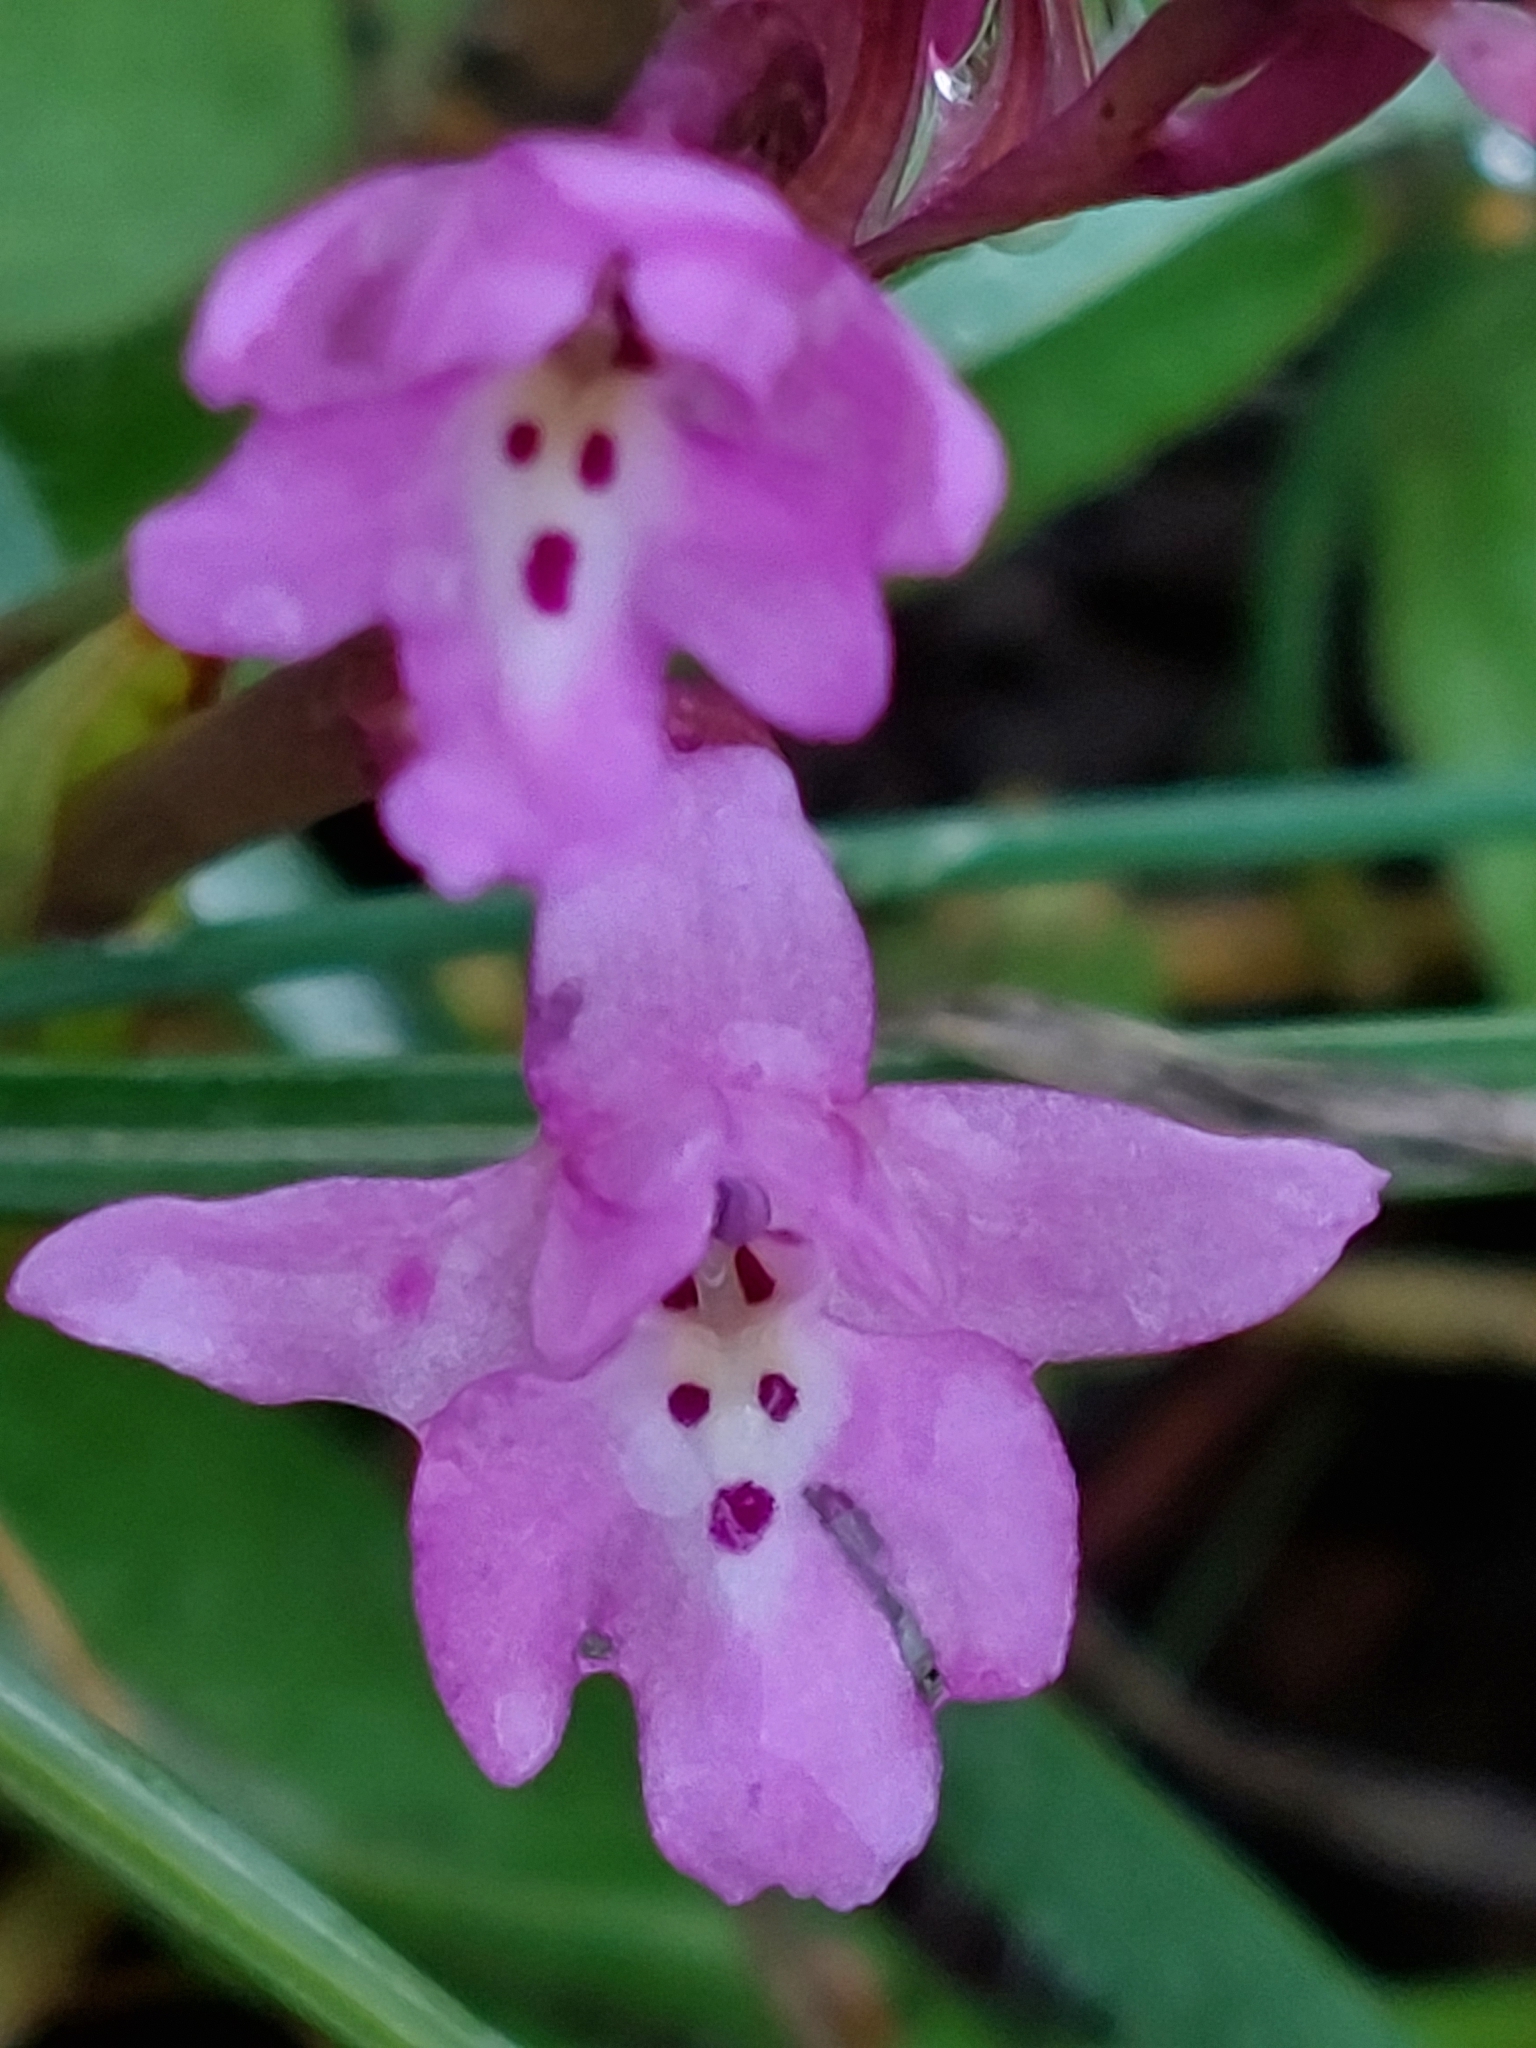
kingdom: Plantae
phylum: Tracheophyta
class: Liliopsida
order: Asparagales
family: Orchidaceae
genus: Orchis
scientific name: Orchis quadripunctata
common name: Four-spotted orchid
